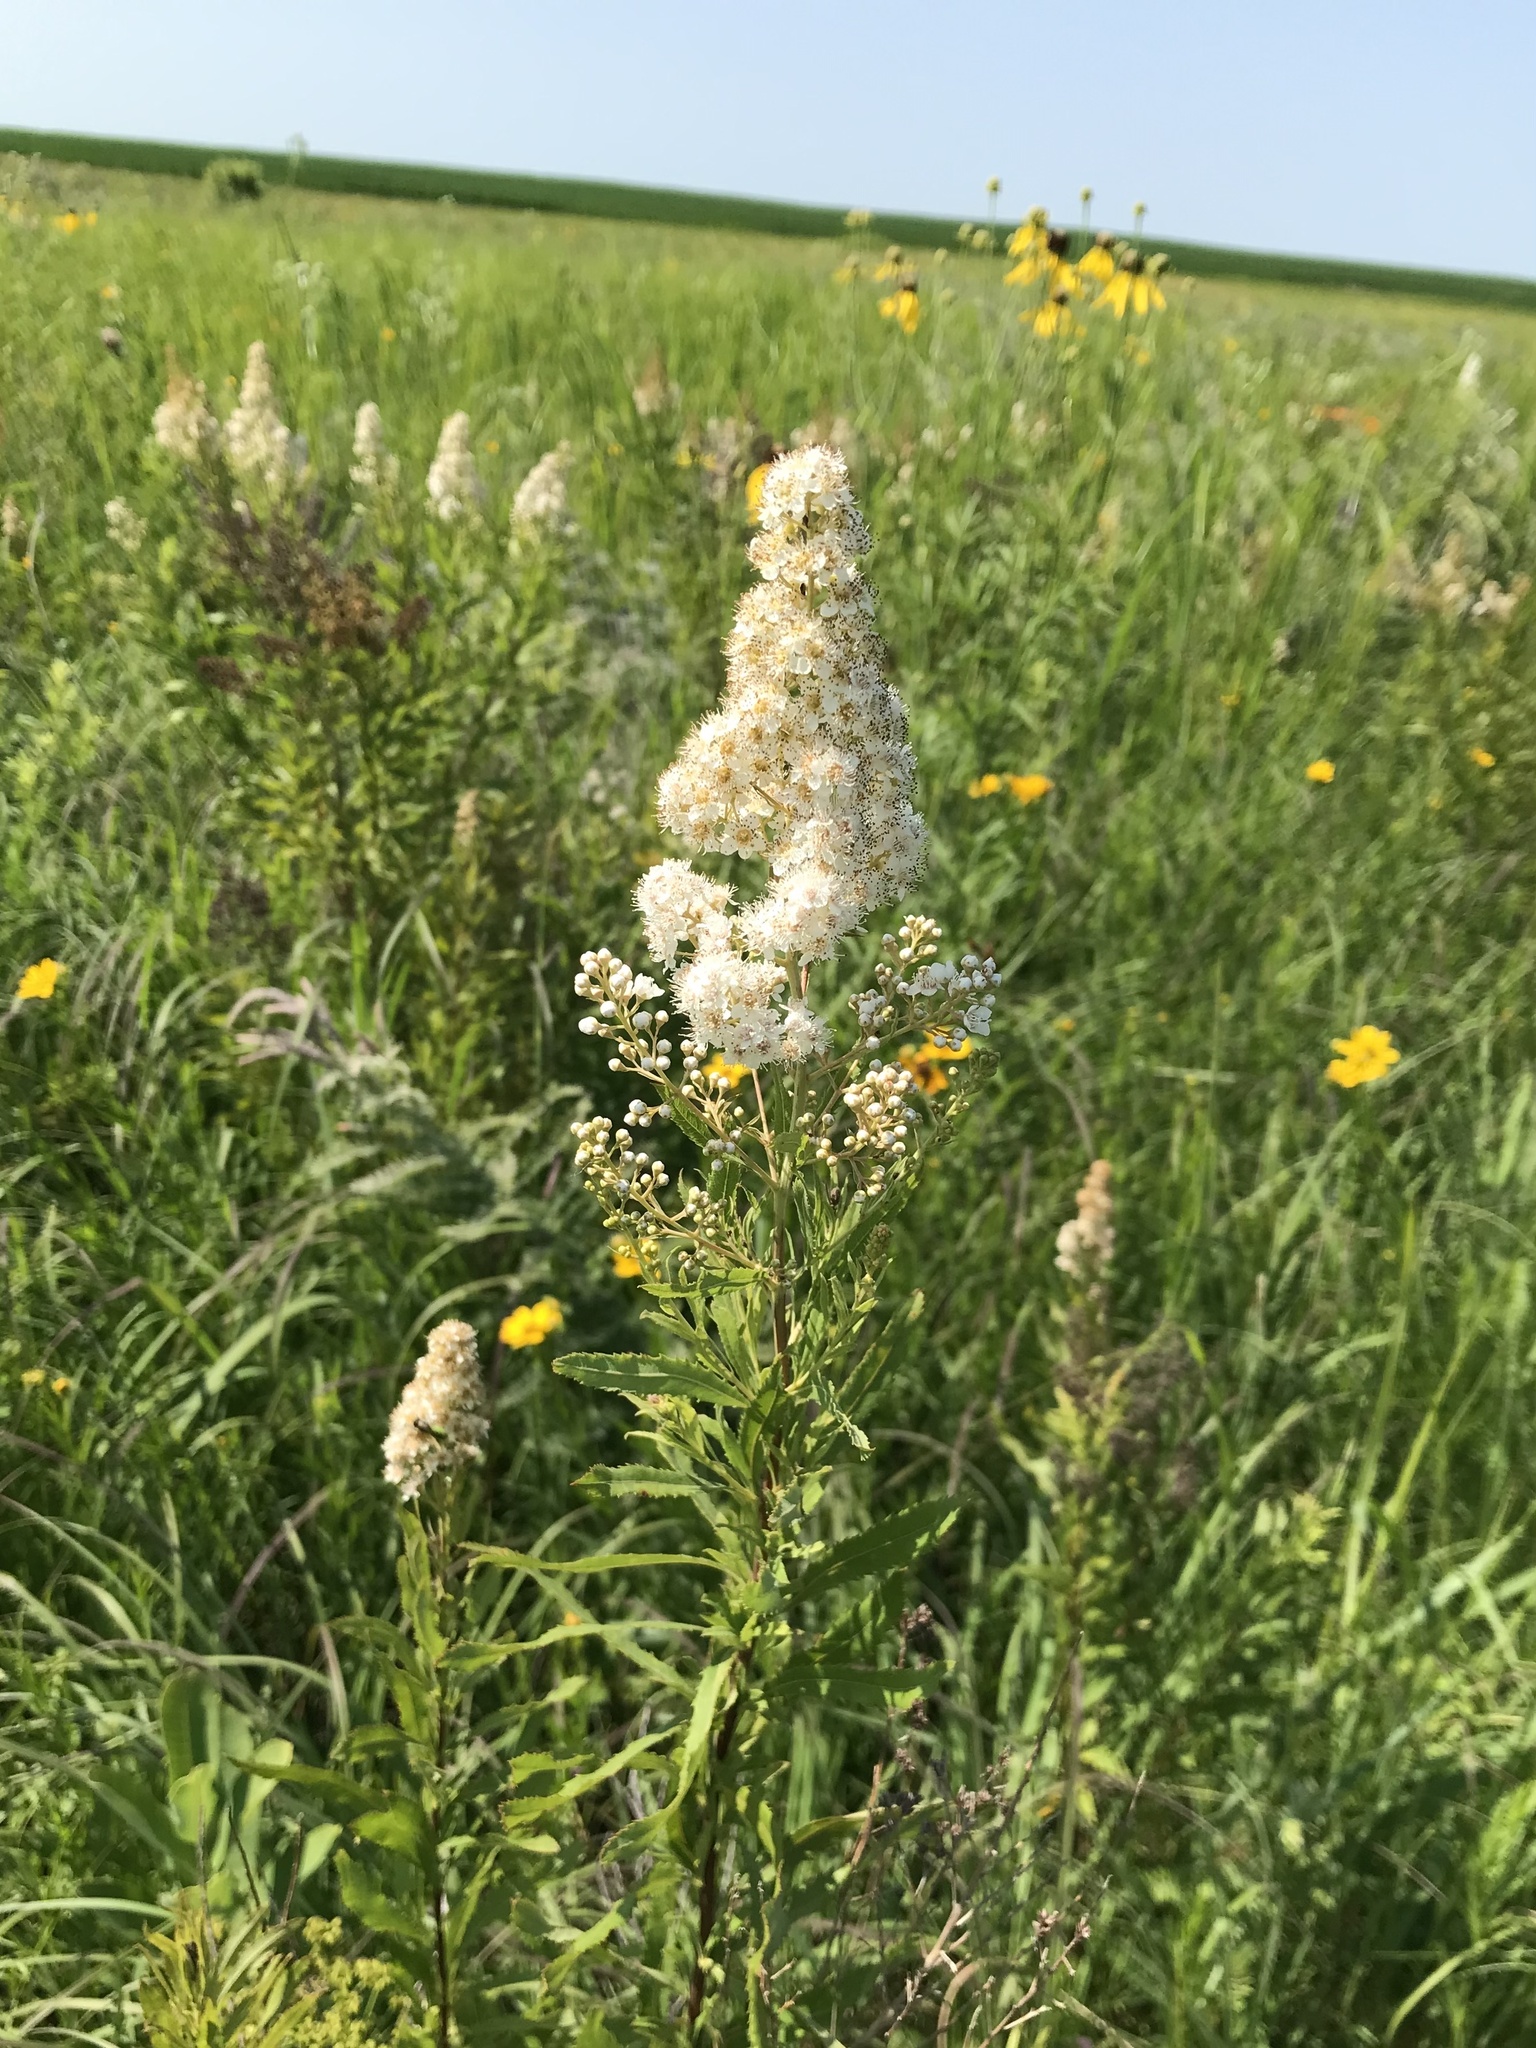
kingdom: Plantae
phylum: Tracheophyta
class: Magnoliopsida
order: Rosales
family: Rosaceae
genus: Spiraea
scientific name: Spiraea alba
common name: Pale bridewort
